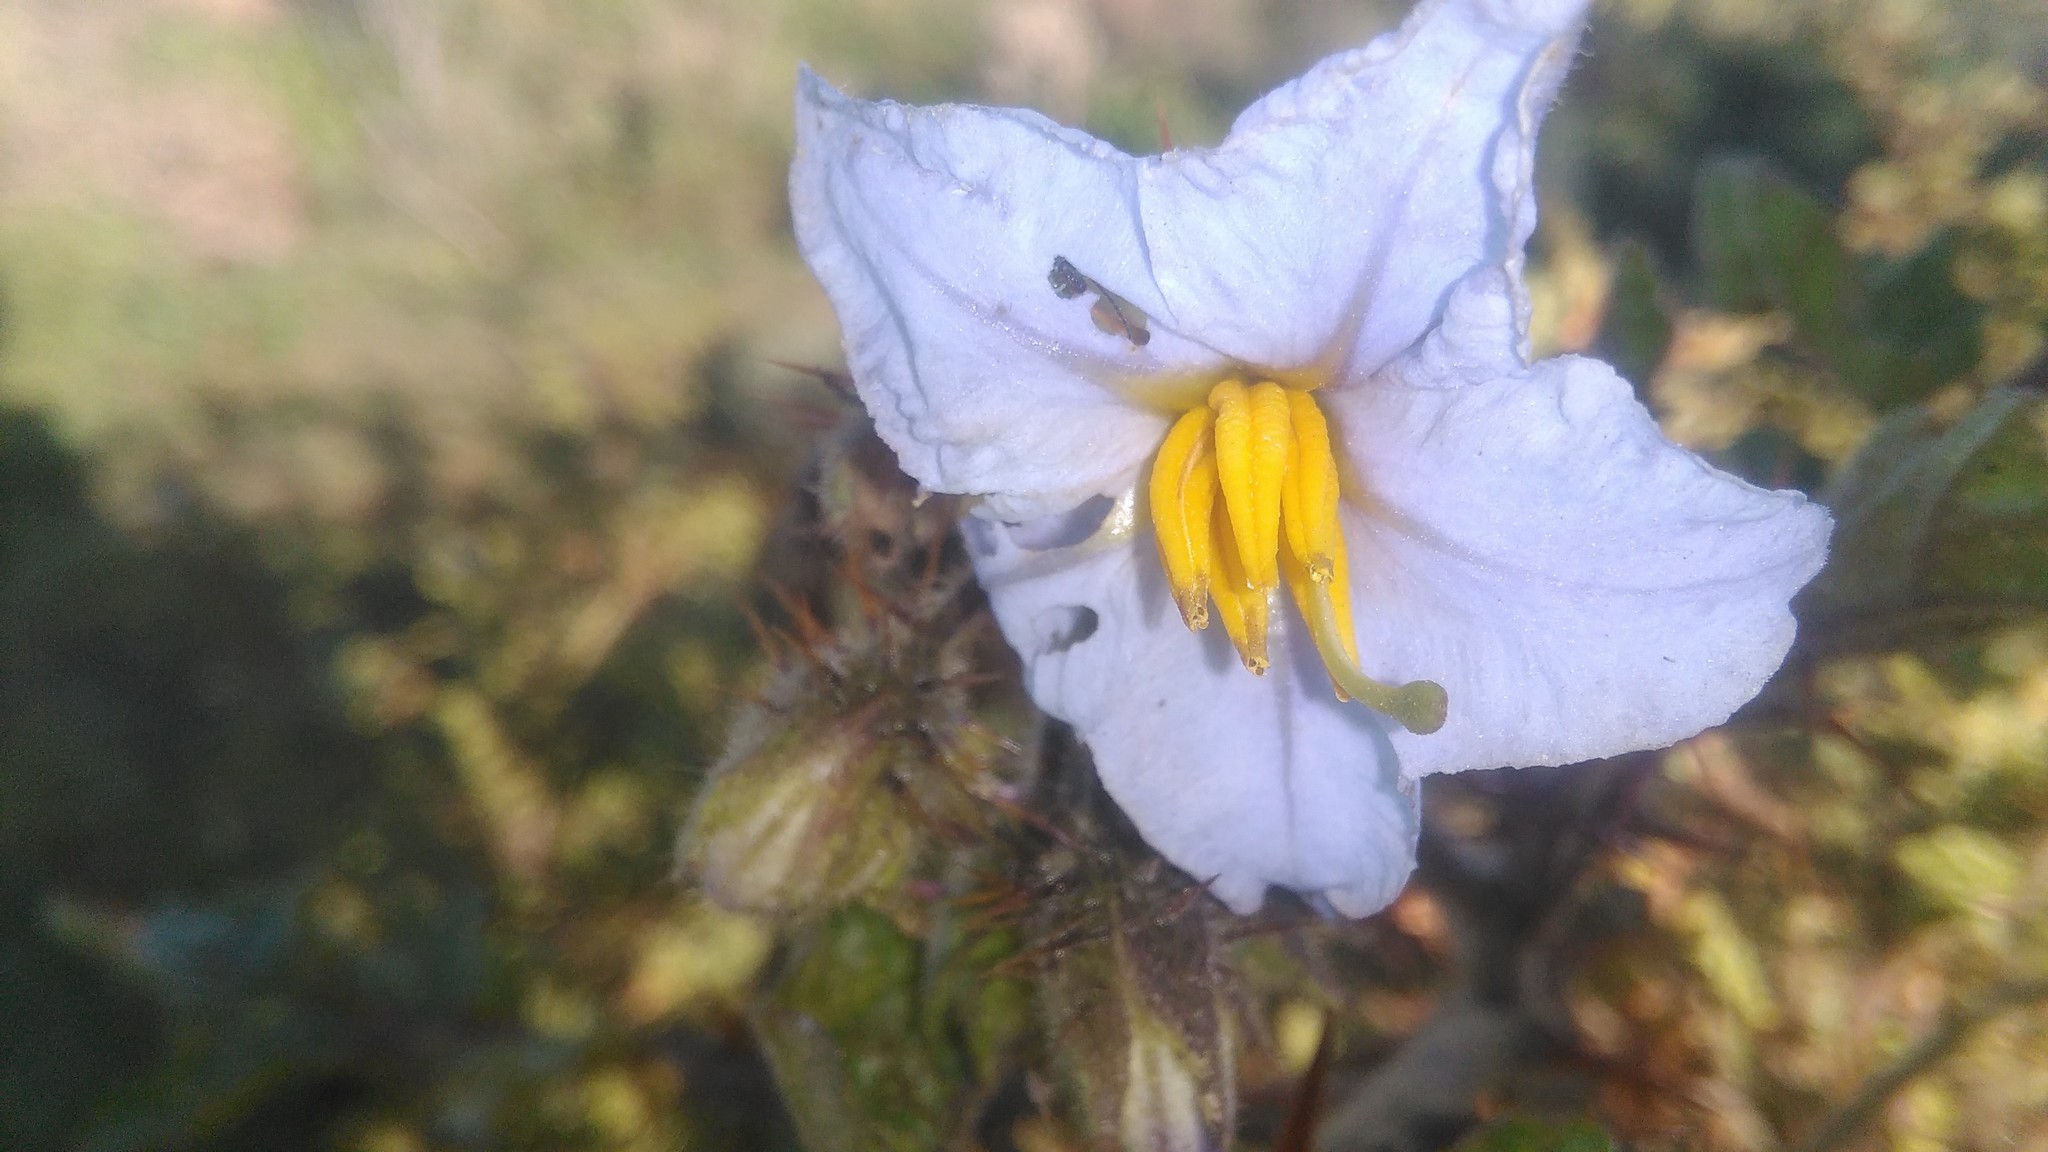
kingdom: Plantae
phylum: Tracheophyta
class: Magnoliopsida
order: Solanales
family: Solanaceae
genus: Solanum
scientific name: Solanum sisymbriifolium
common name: Red buffalo-bur
